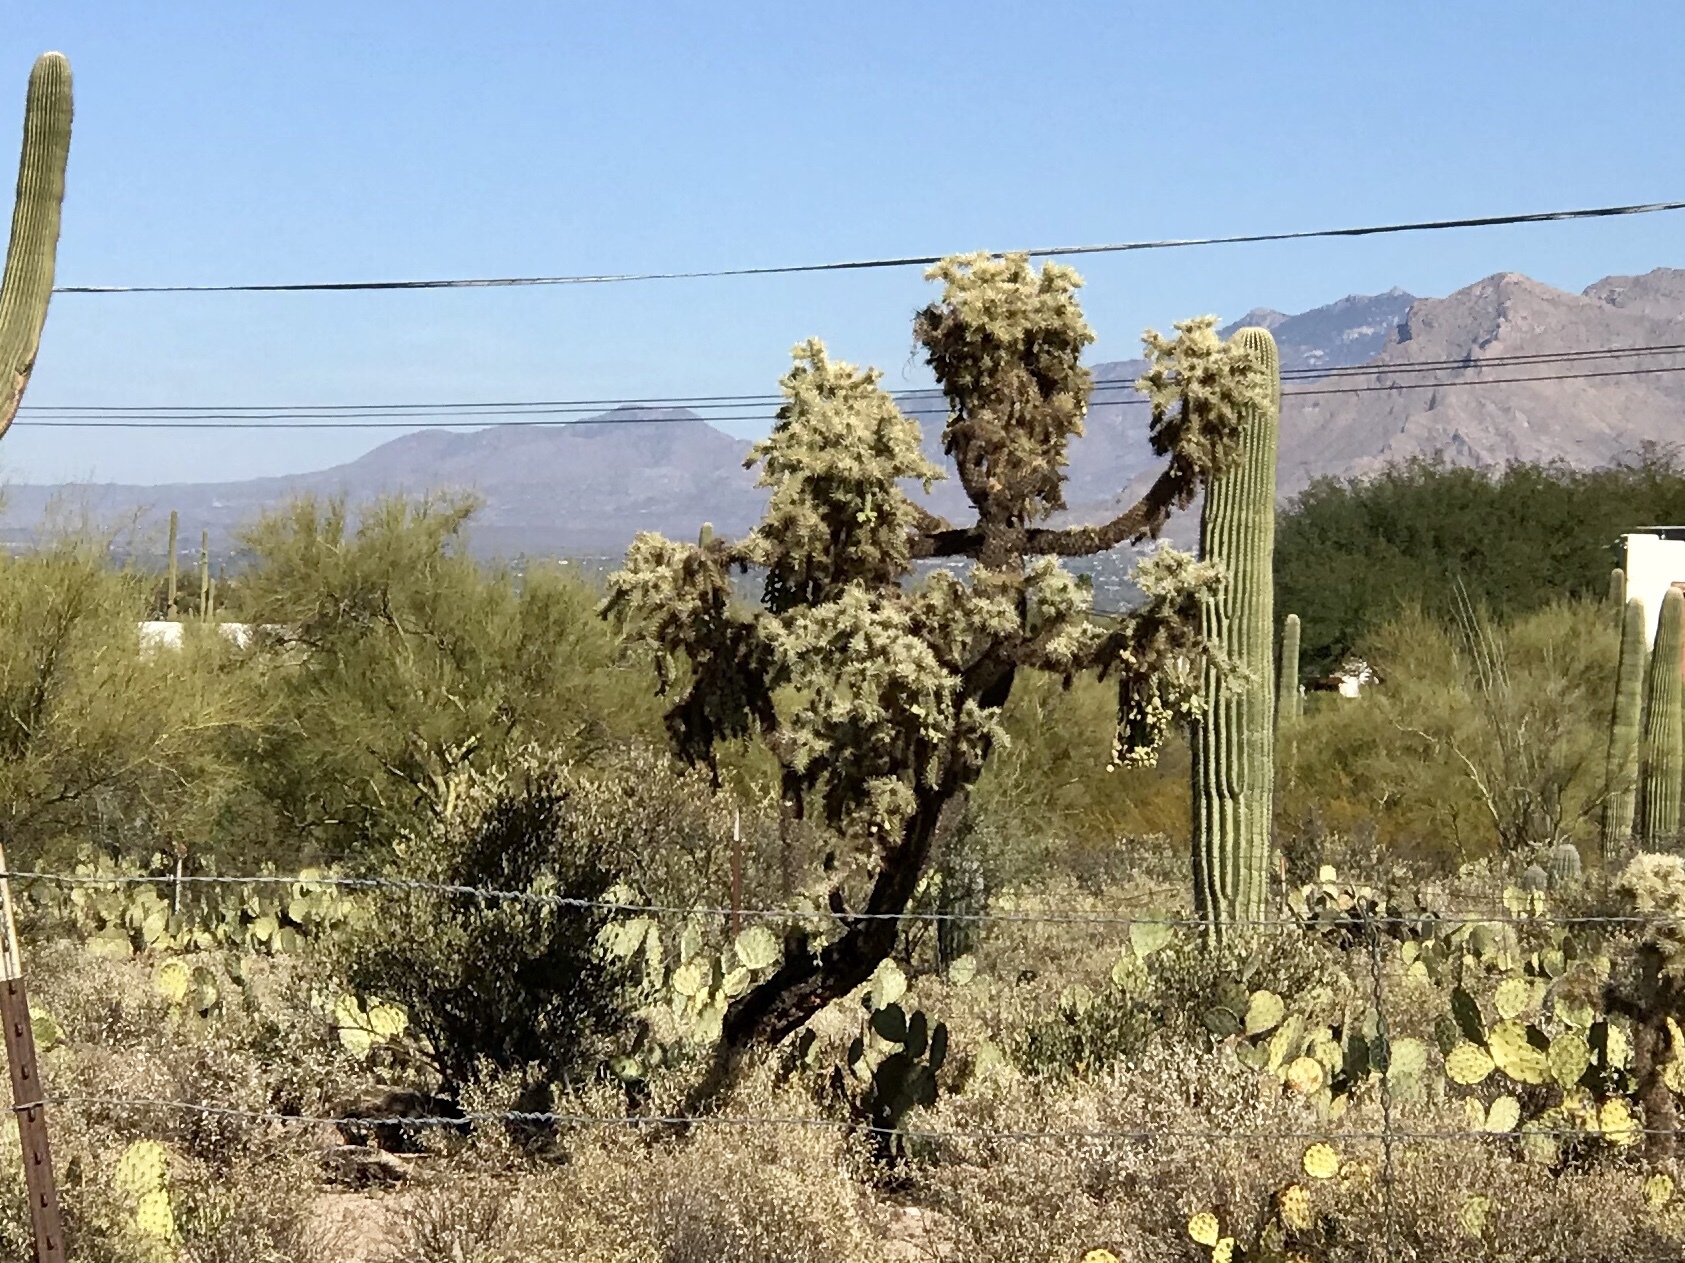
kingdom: Plantae
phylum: Tracheophyta
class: Magnoliopsida
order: Caryophyllales
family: Cactaceae
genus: Cylindropuntia
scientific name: Cylindropuntia fulgida
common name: Jumping cholla
